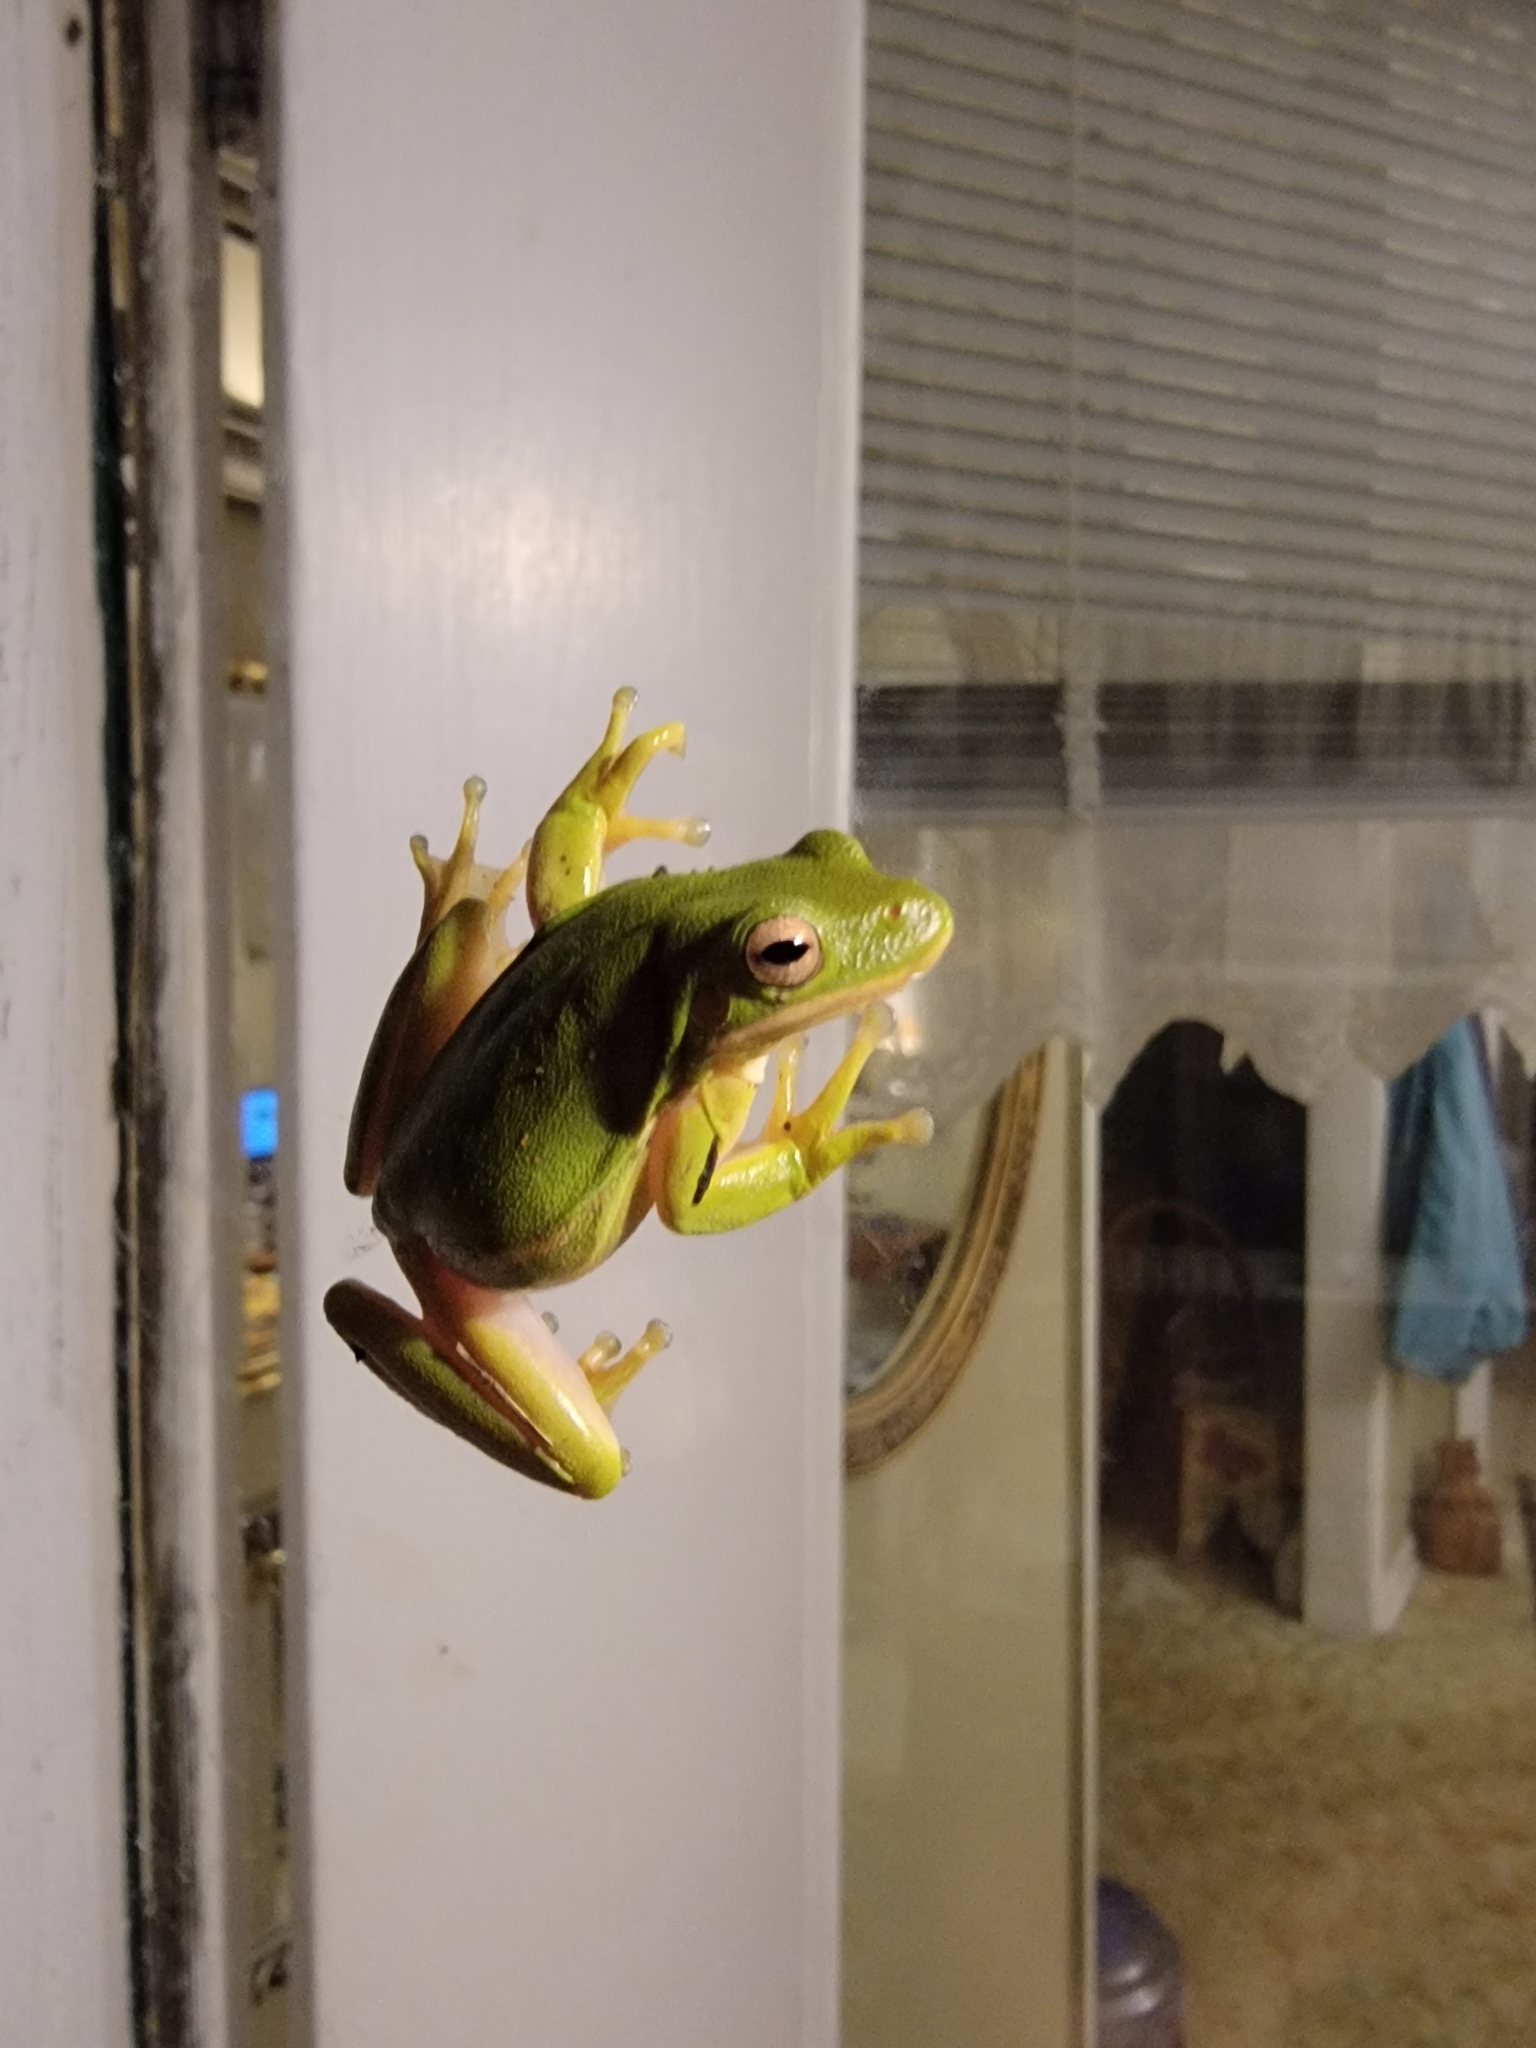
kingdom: Animalia
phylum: Chordata
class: Amphibia
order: Anura
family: Hylidae
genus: Dryophytes
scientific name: Dryophytes cinereus
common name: Green treefrog
